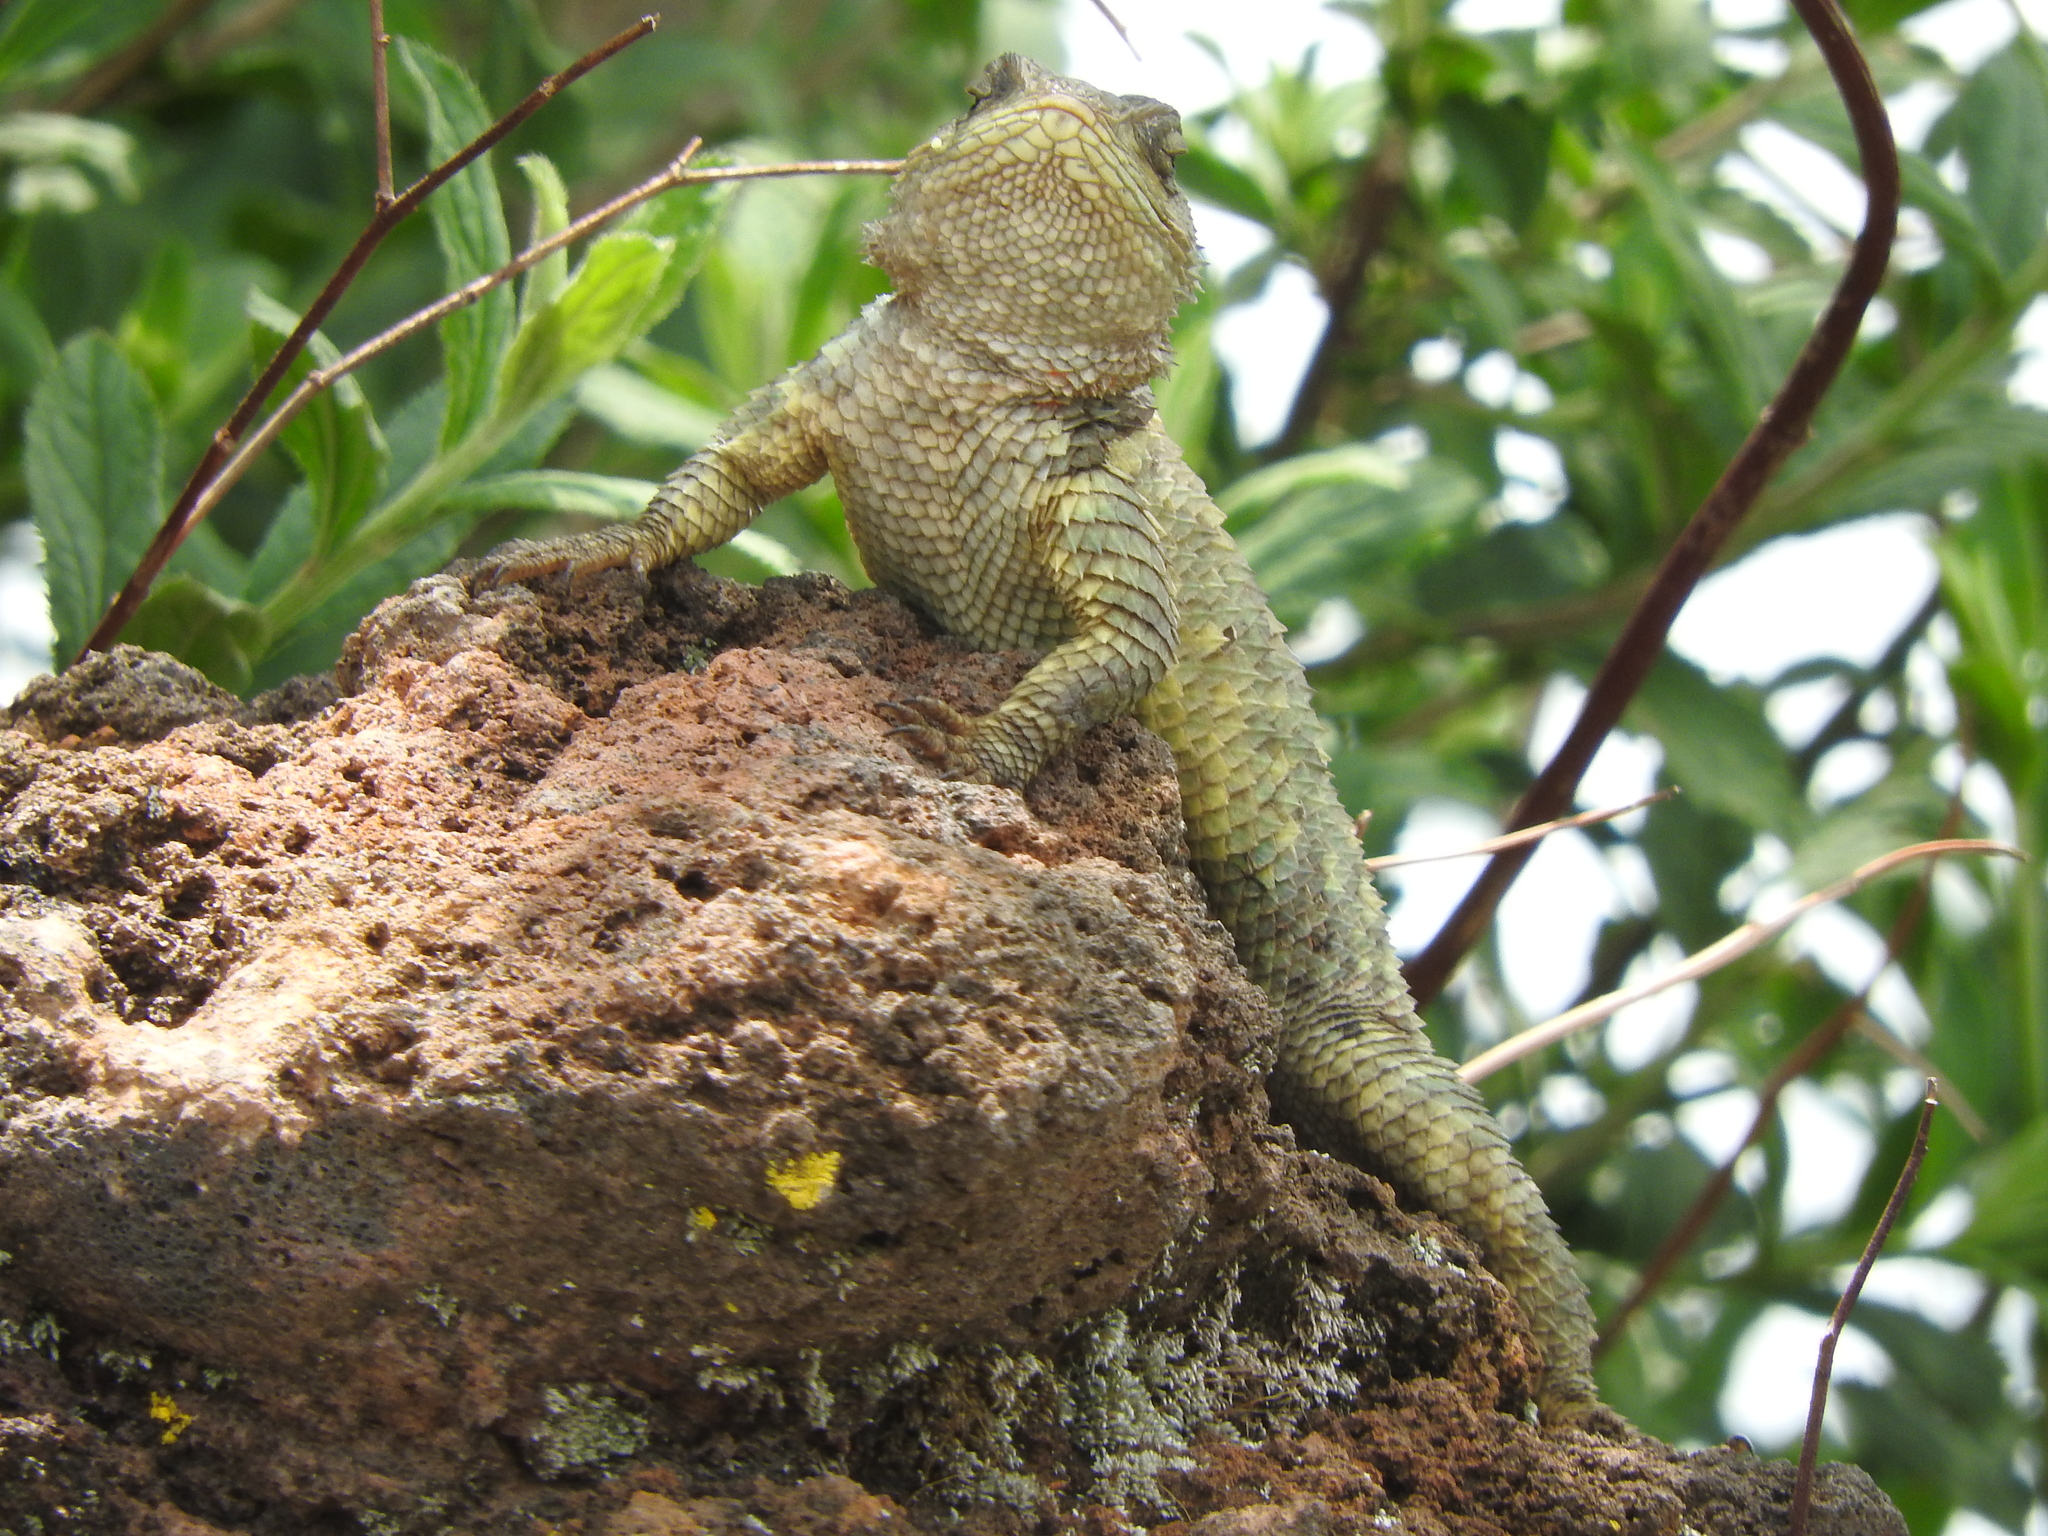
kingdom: Animalia
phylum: Chordata
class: Squamata
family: Phrynosomatidae
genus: Sceloporus
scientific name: Sceloporus torquatus
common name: Central plateau torquate lizard [melanogaster]
